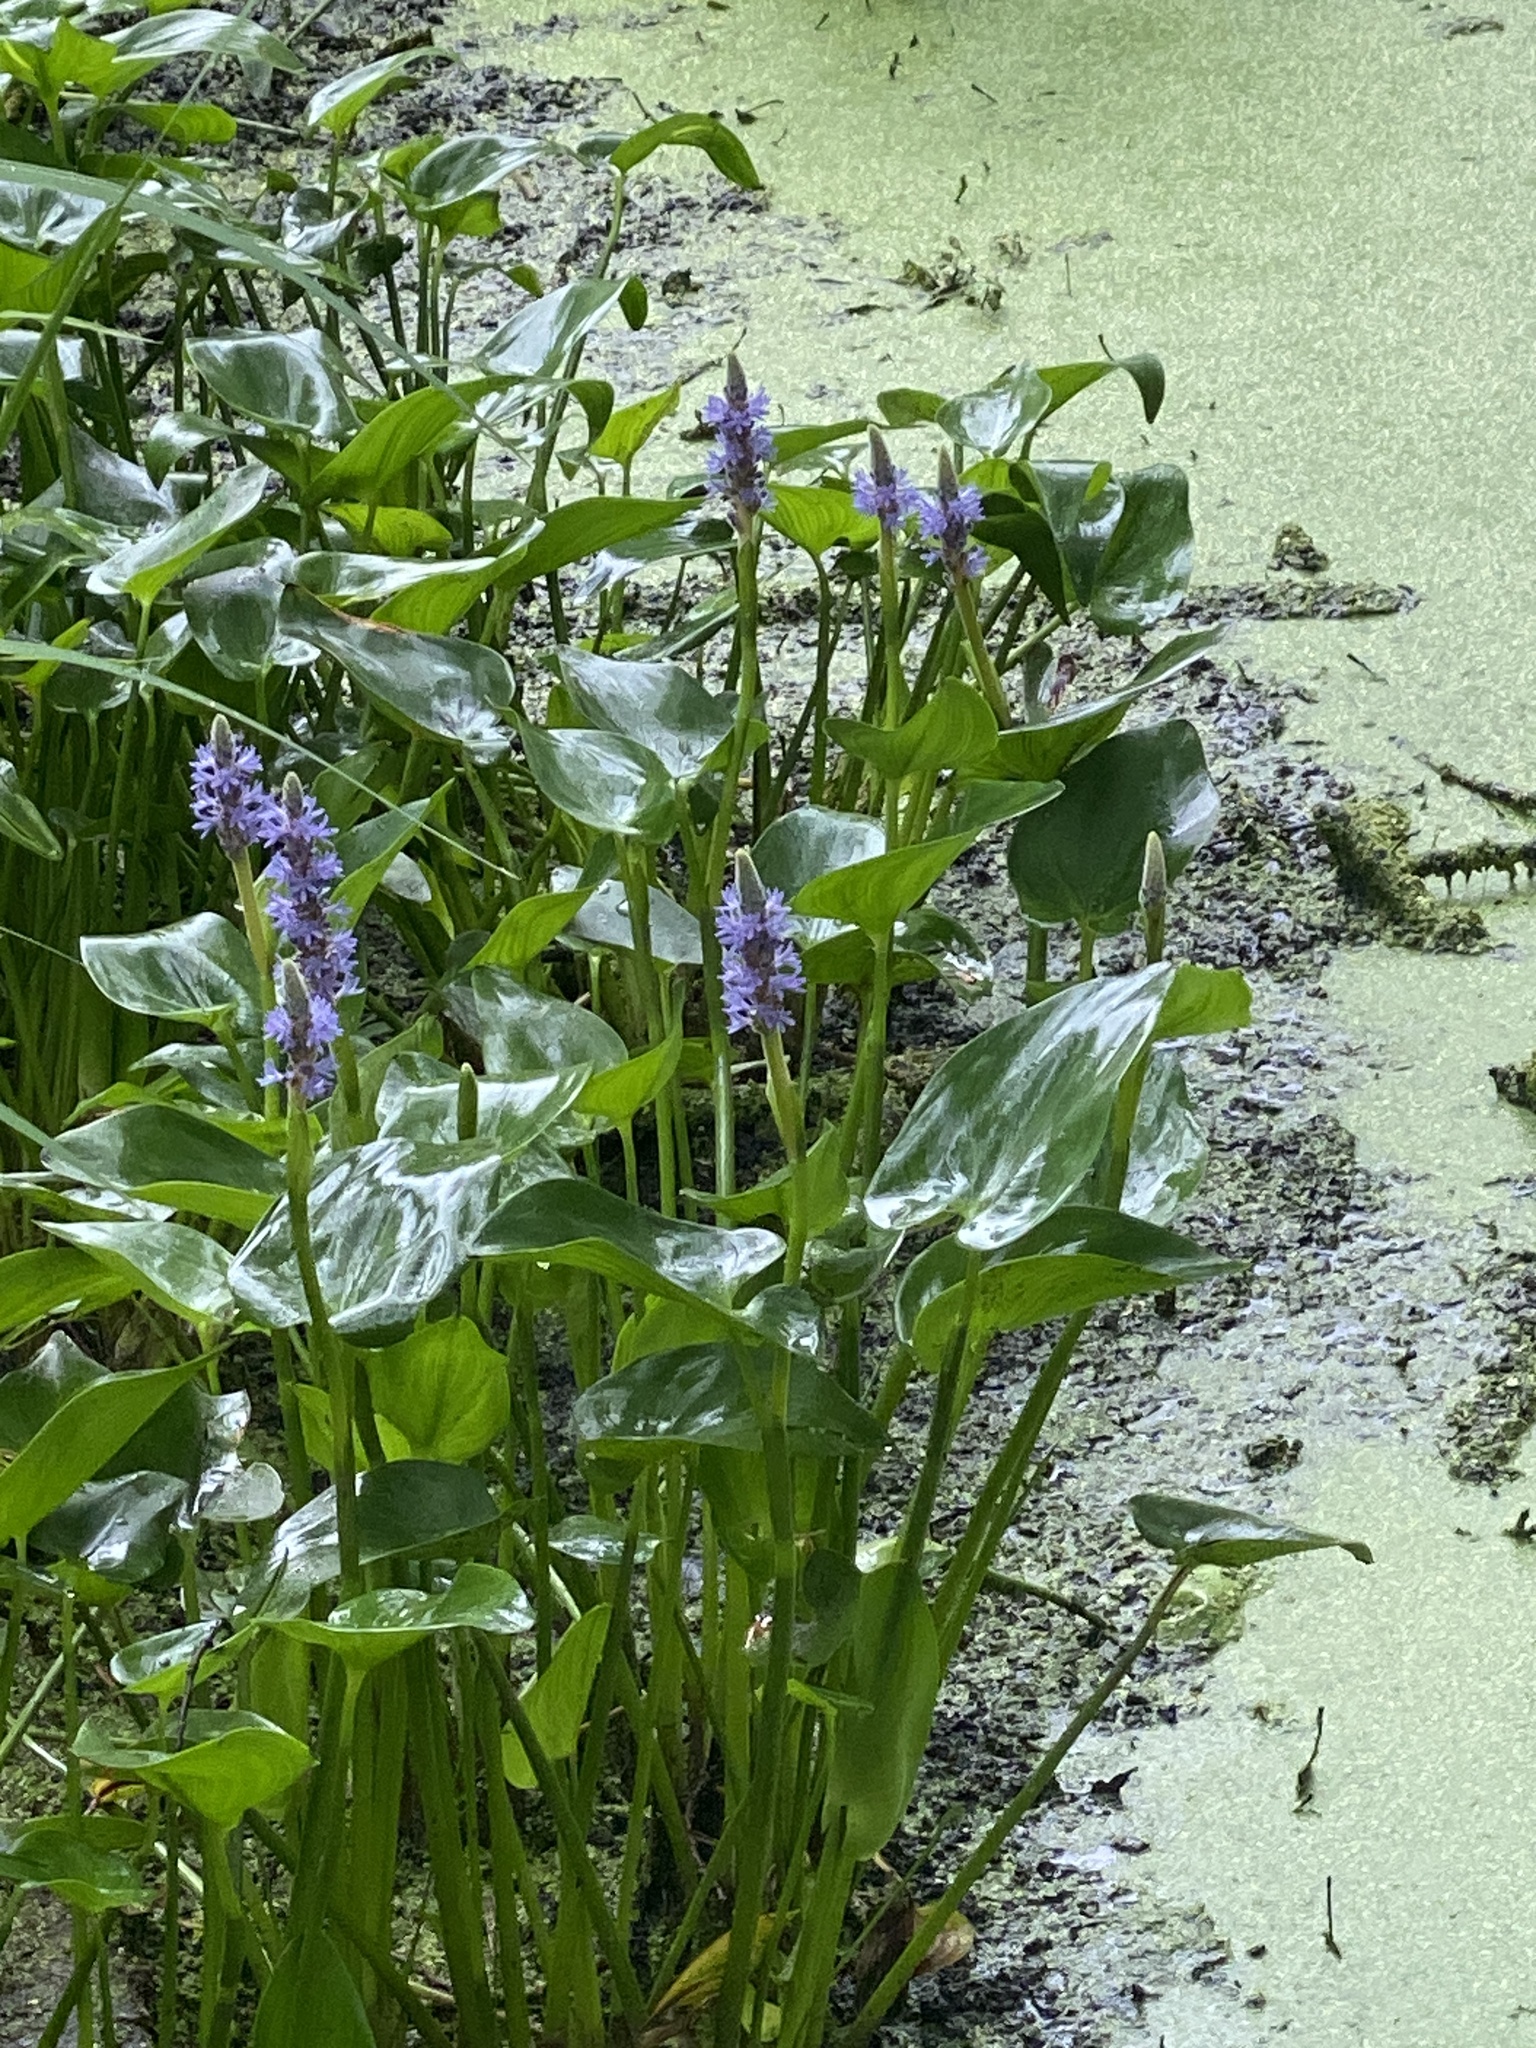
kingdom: Plantae
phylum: Tracheophyta
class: Liliopsida
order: Commelinales
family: Pontederiaceae
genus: Pontederia
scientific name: Pontederia cordata
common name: Pickerelweed
